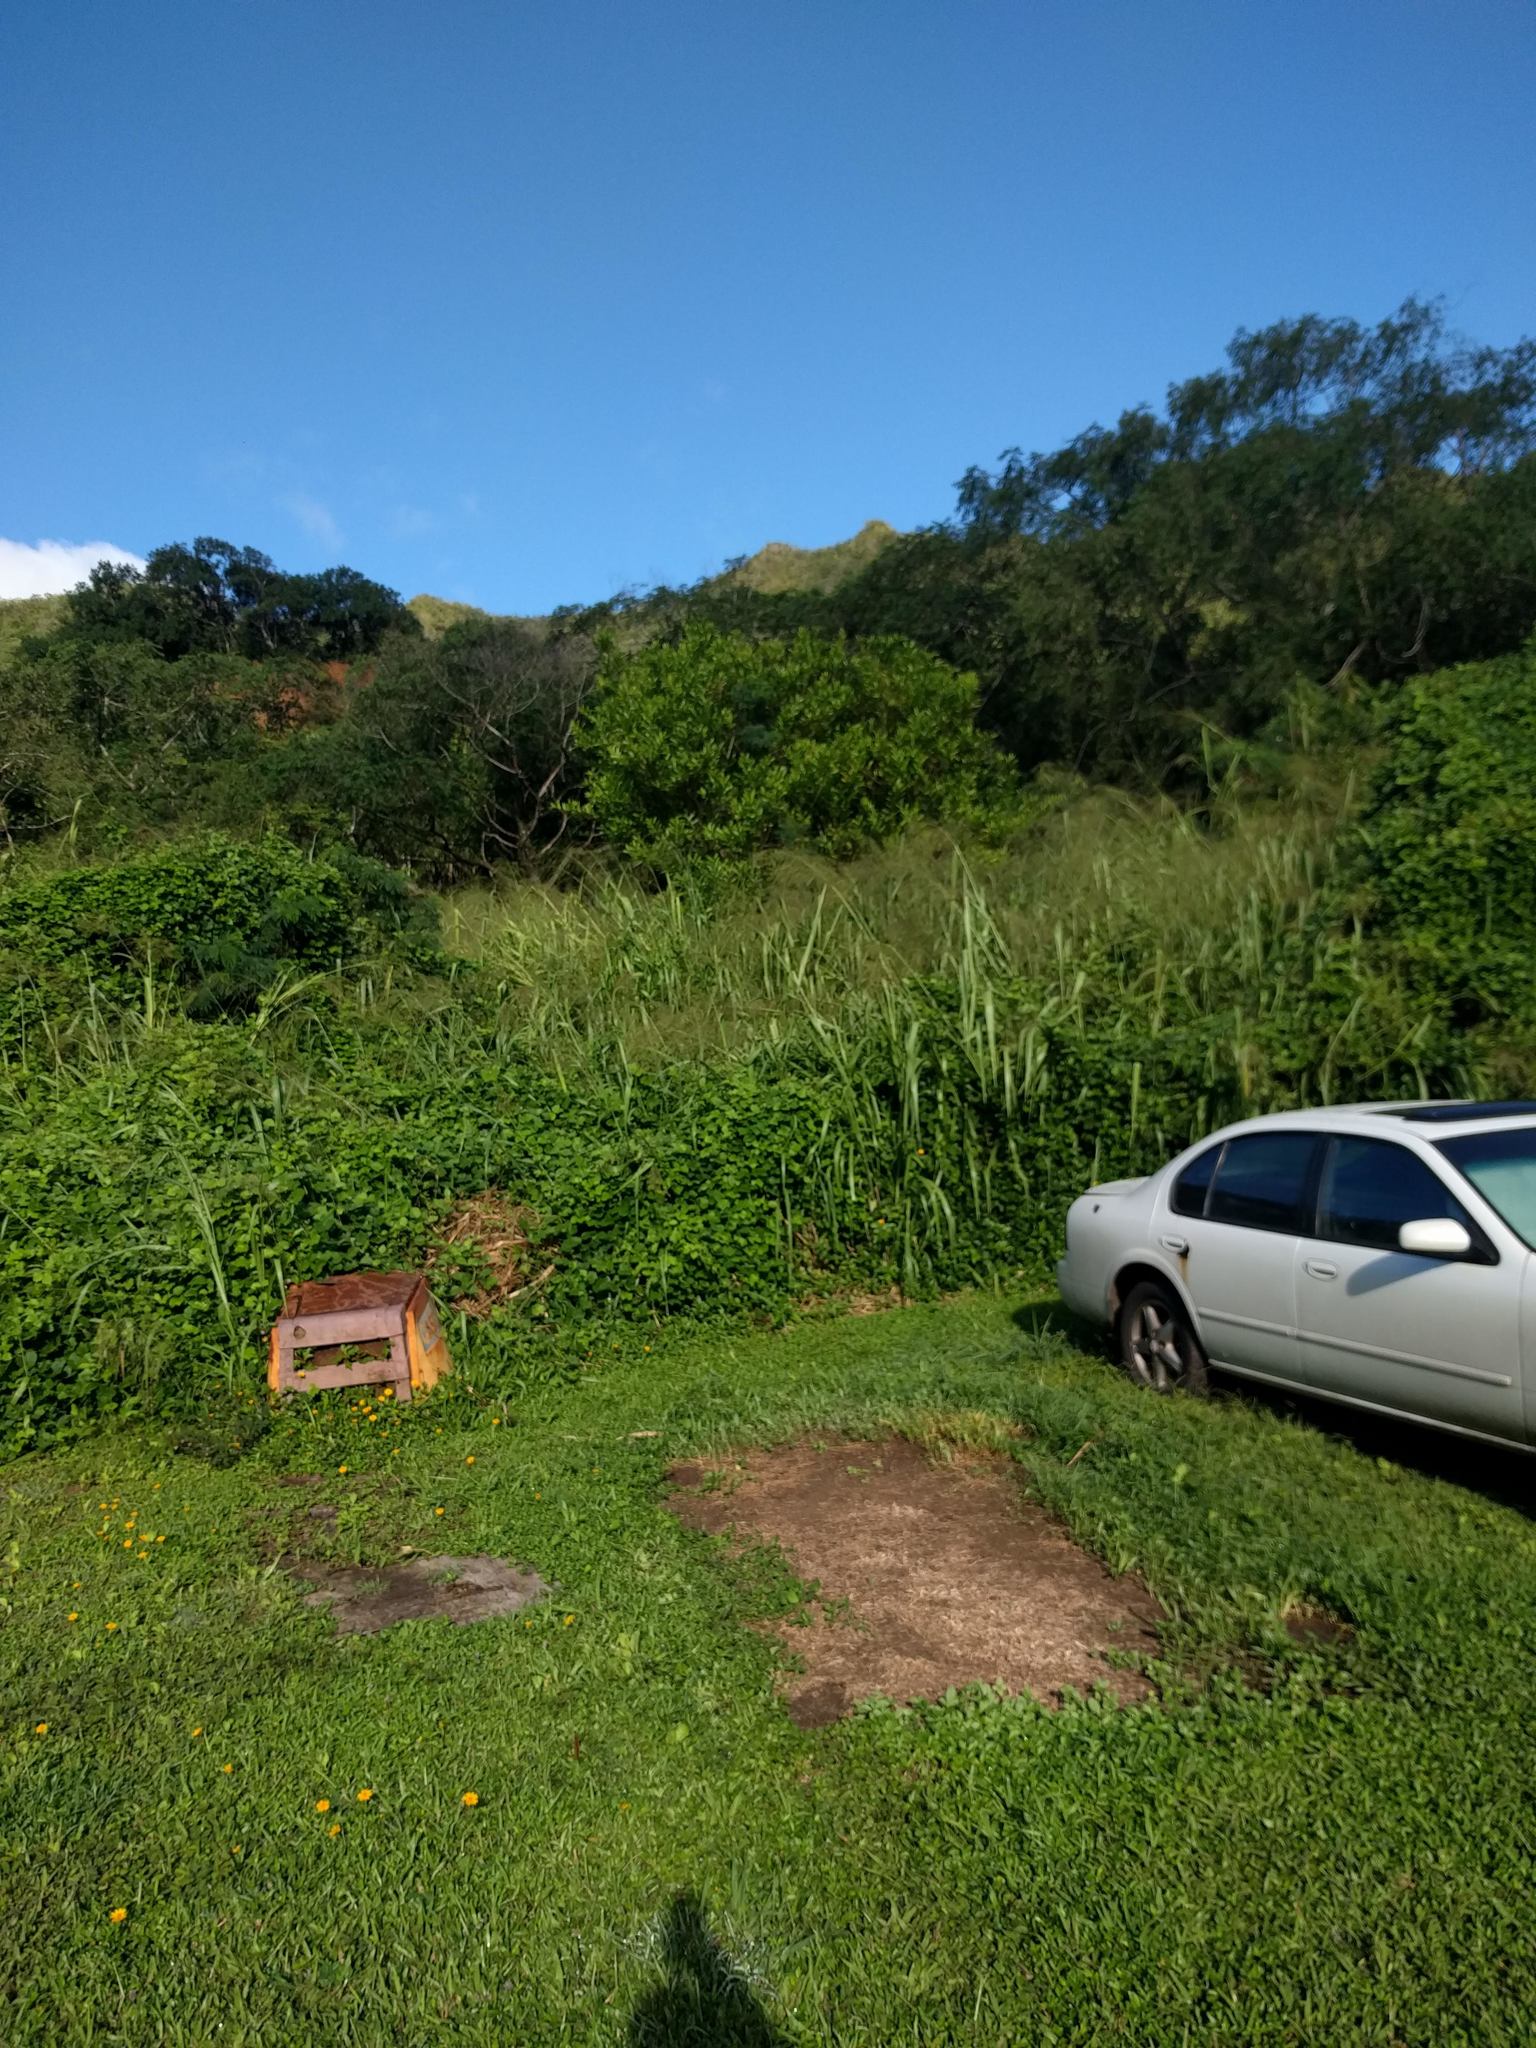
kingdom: Plantae
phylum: Tracheophyta
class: Liliopsida
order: Poales
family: Poaceae
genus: Megathyrsus
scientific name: Megathyrsus maximus
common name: Guineagrass
